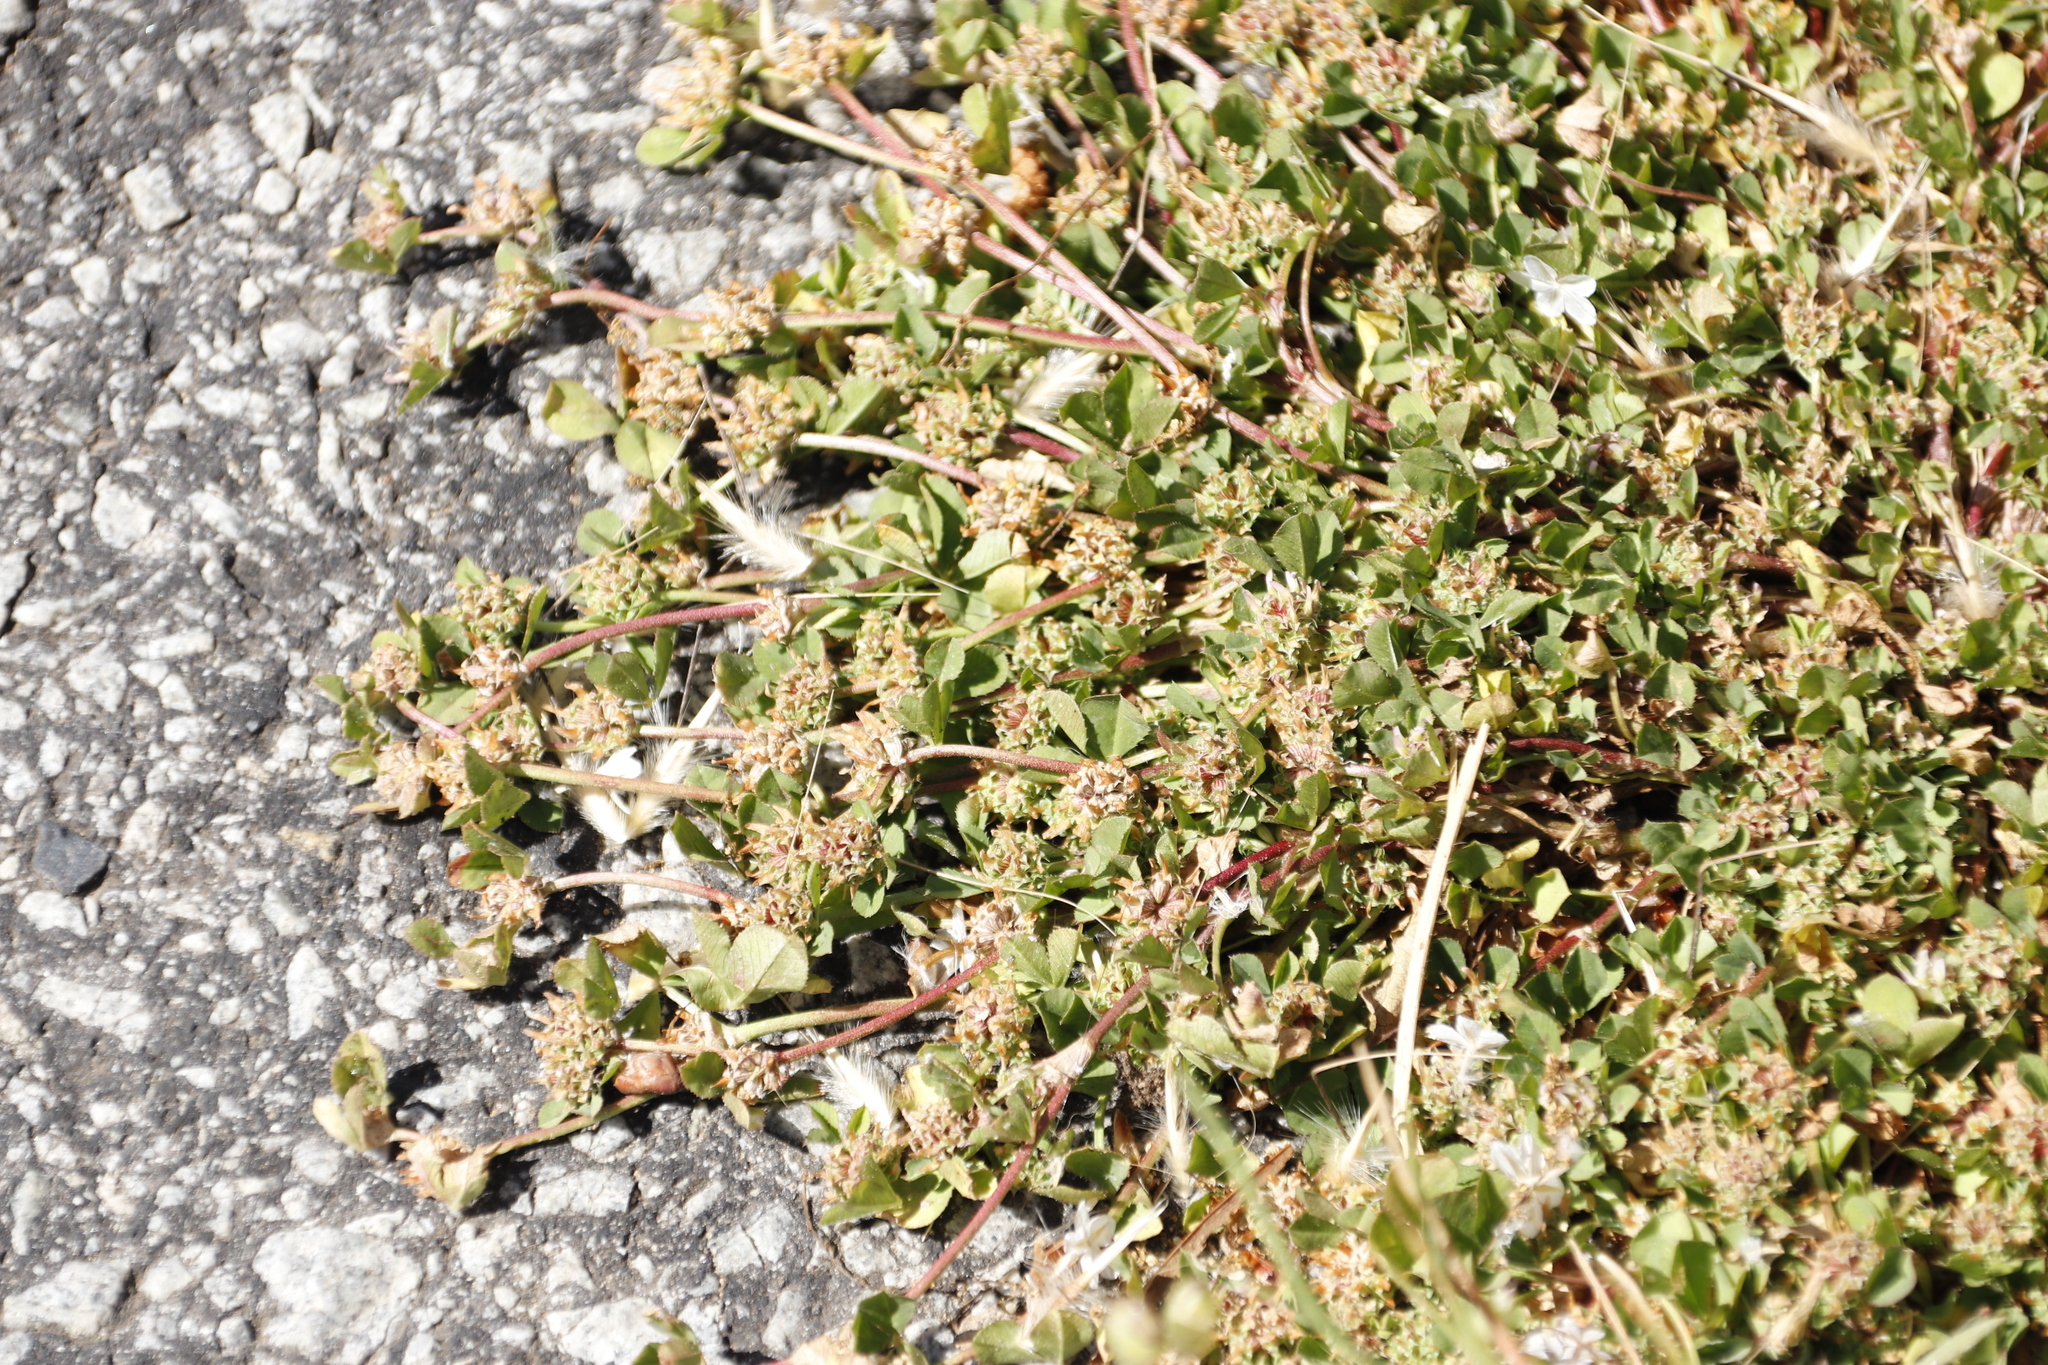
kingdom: Plantae
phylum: Tracheophyta
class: Magnoliopsida
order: Fabales
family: Fabaceae
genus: Trifolium
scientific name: Trifolium glomeratum
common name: Clustered clover
